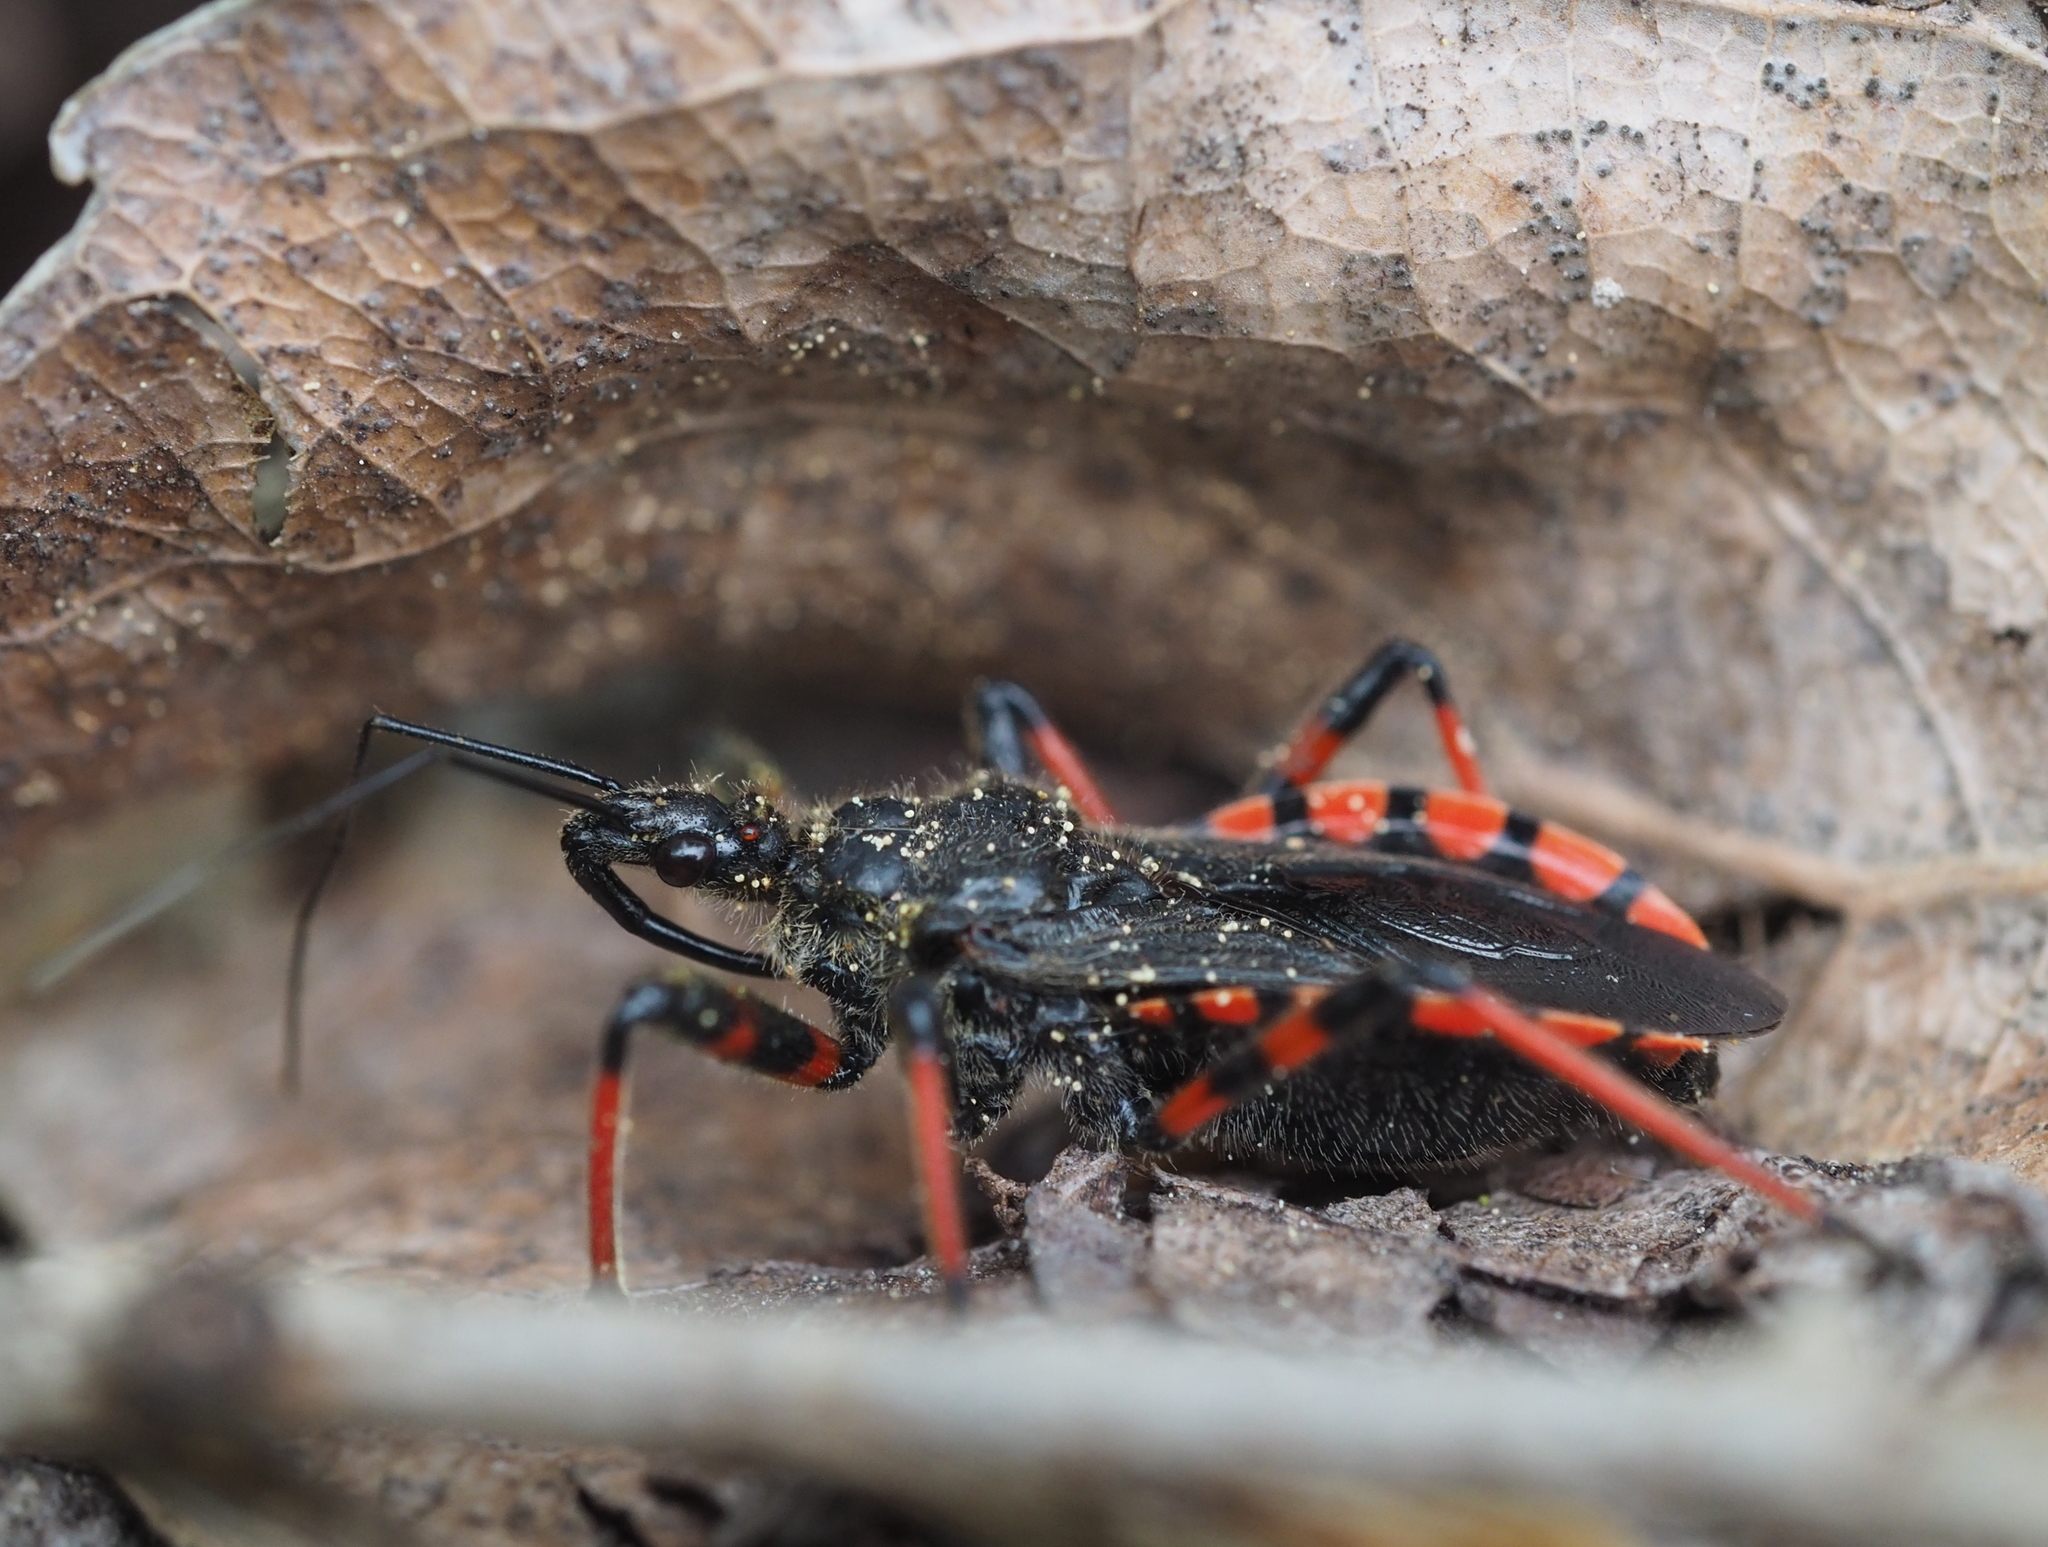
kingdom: Animalia
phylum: Arthropoda
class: Insecta
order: Hemiptera
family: Reduviidae
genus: Rhynocoris
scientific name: Rhynocoris annulatus
